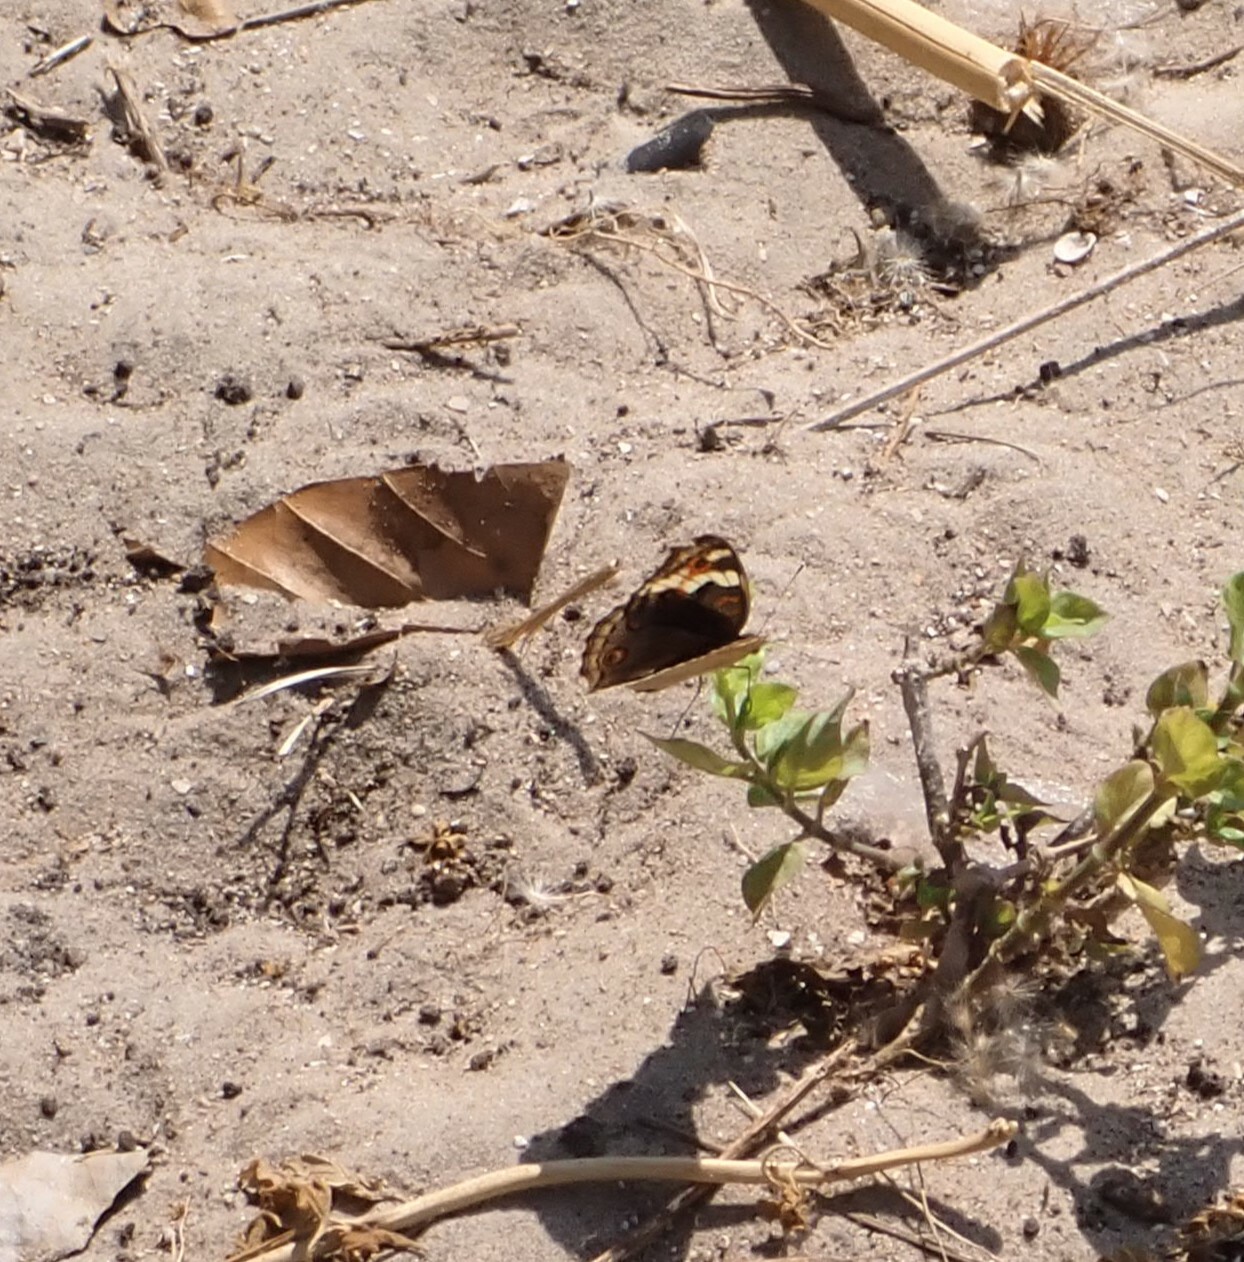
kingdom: Animalia
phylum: Arthropoda
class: Insecta
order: Lepidoptera
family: Nymphalidae
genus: Junonia
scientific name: Junonia orithya
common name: Blue pansy
